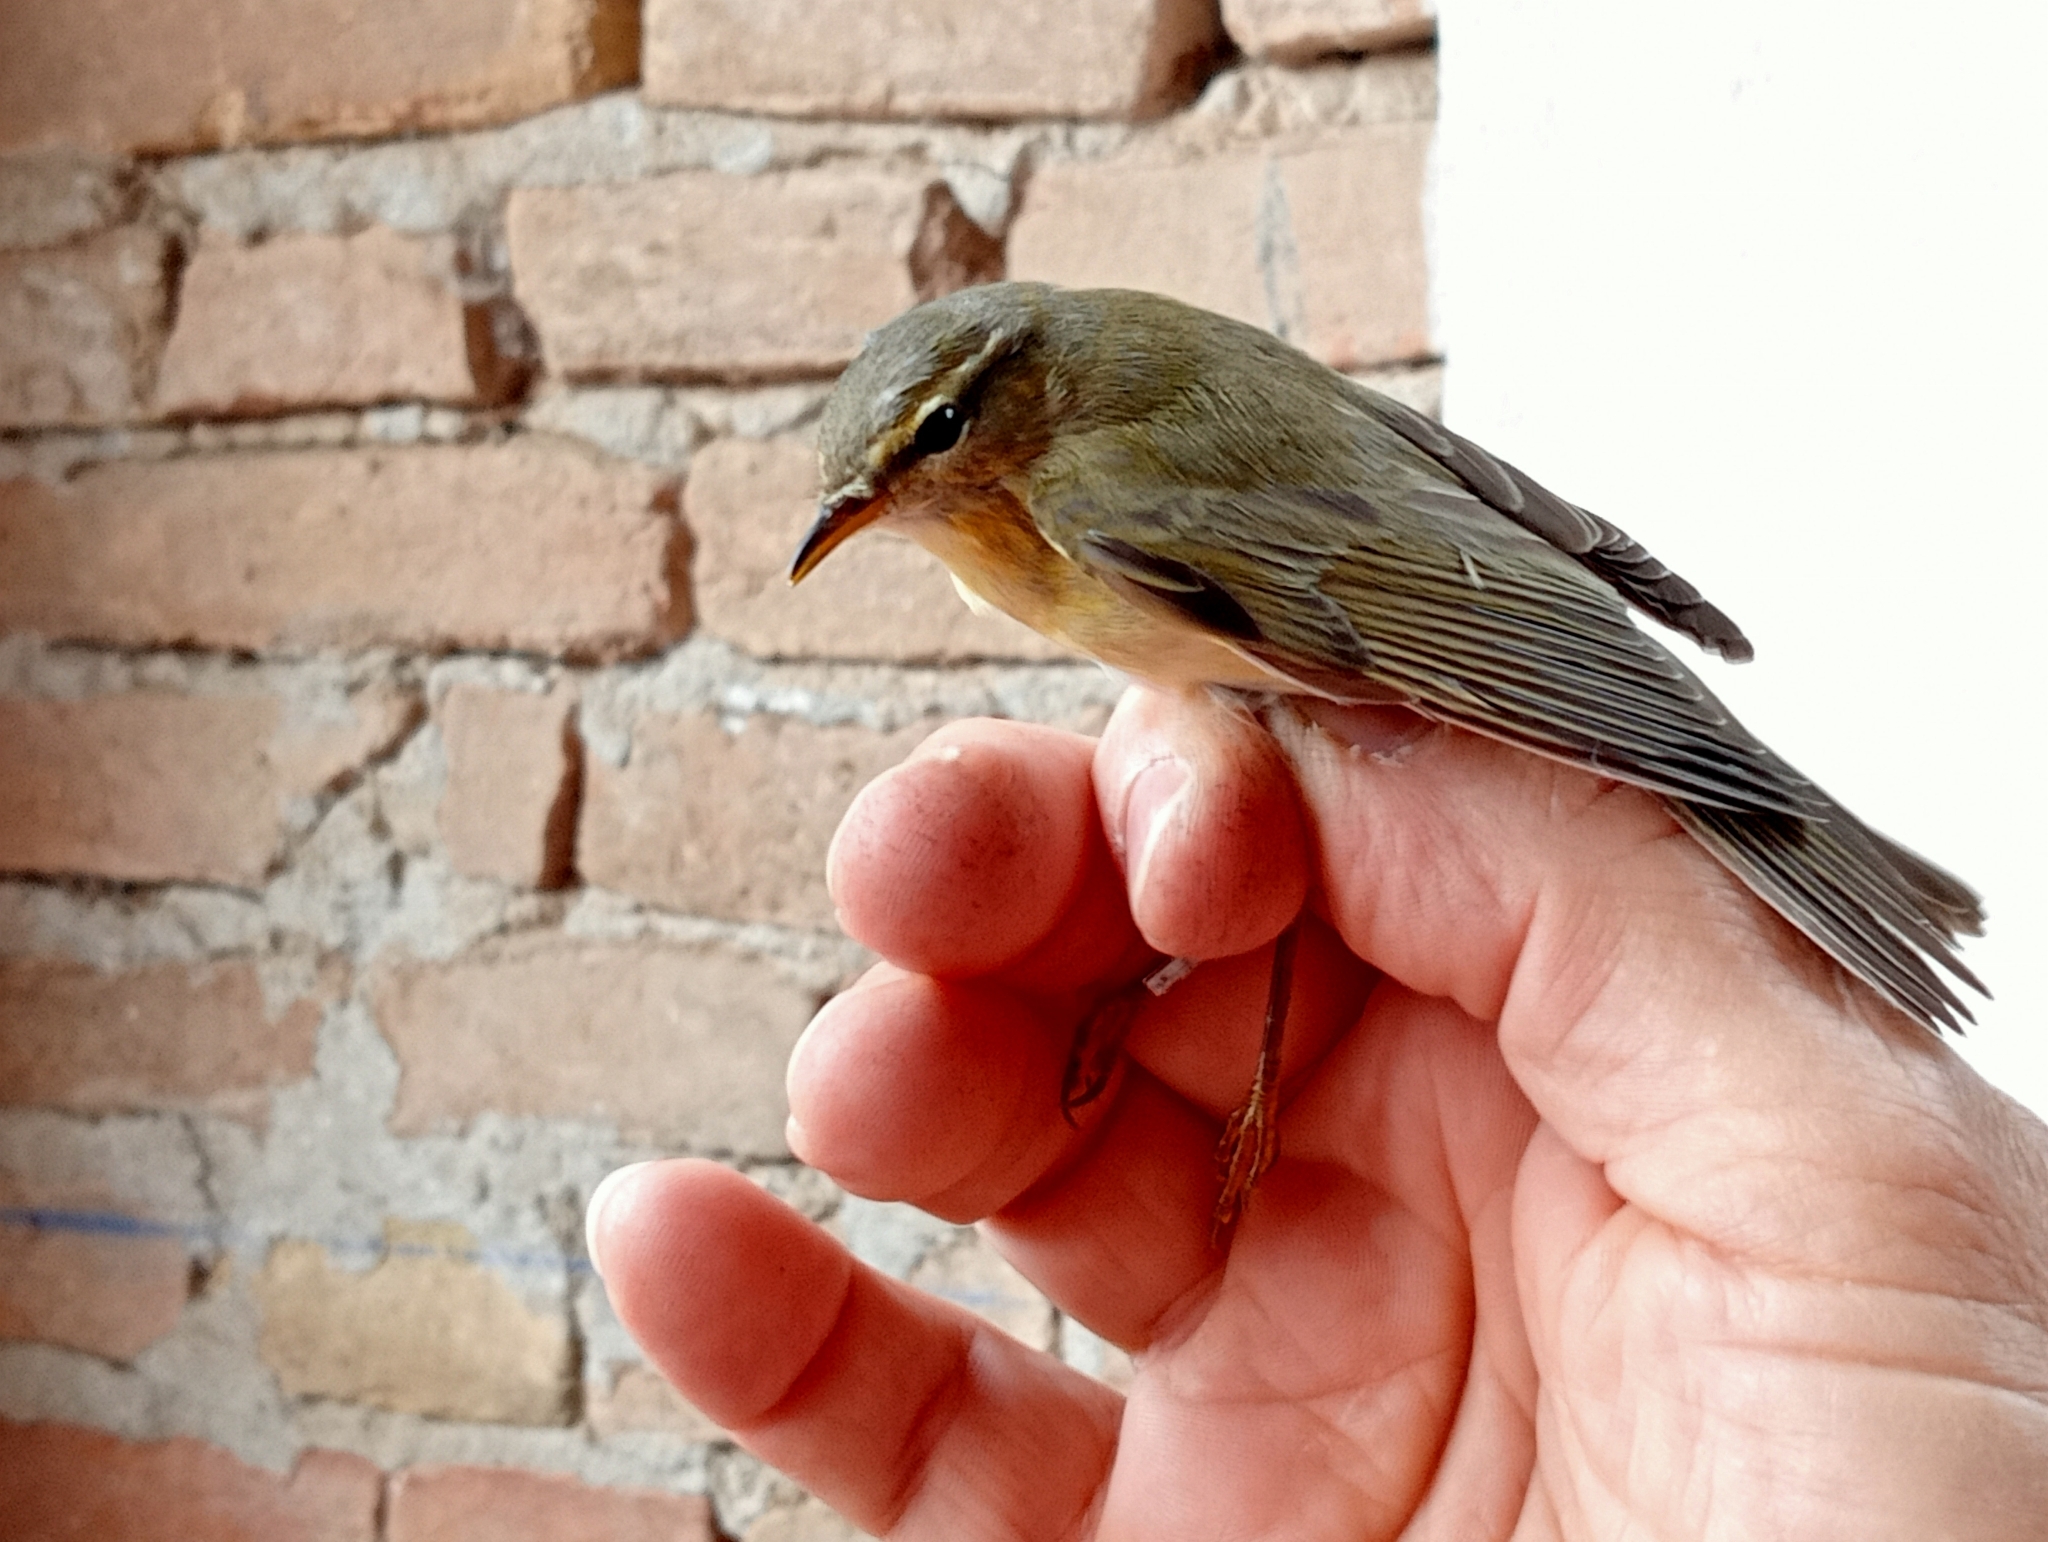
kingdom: Animalia
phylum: Chordata
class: Aves
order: Passeriformes
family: Phylloscopidae
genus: Phylloscopus
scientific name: Phylloscopus trochilus
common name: Willow warbler
